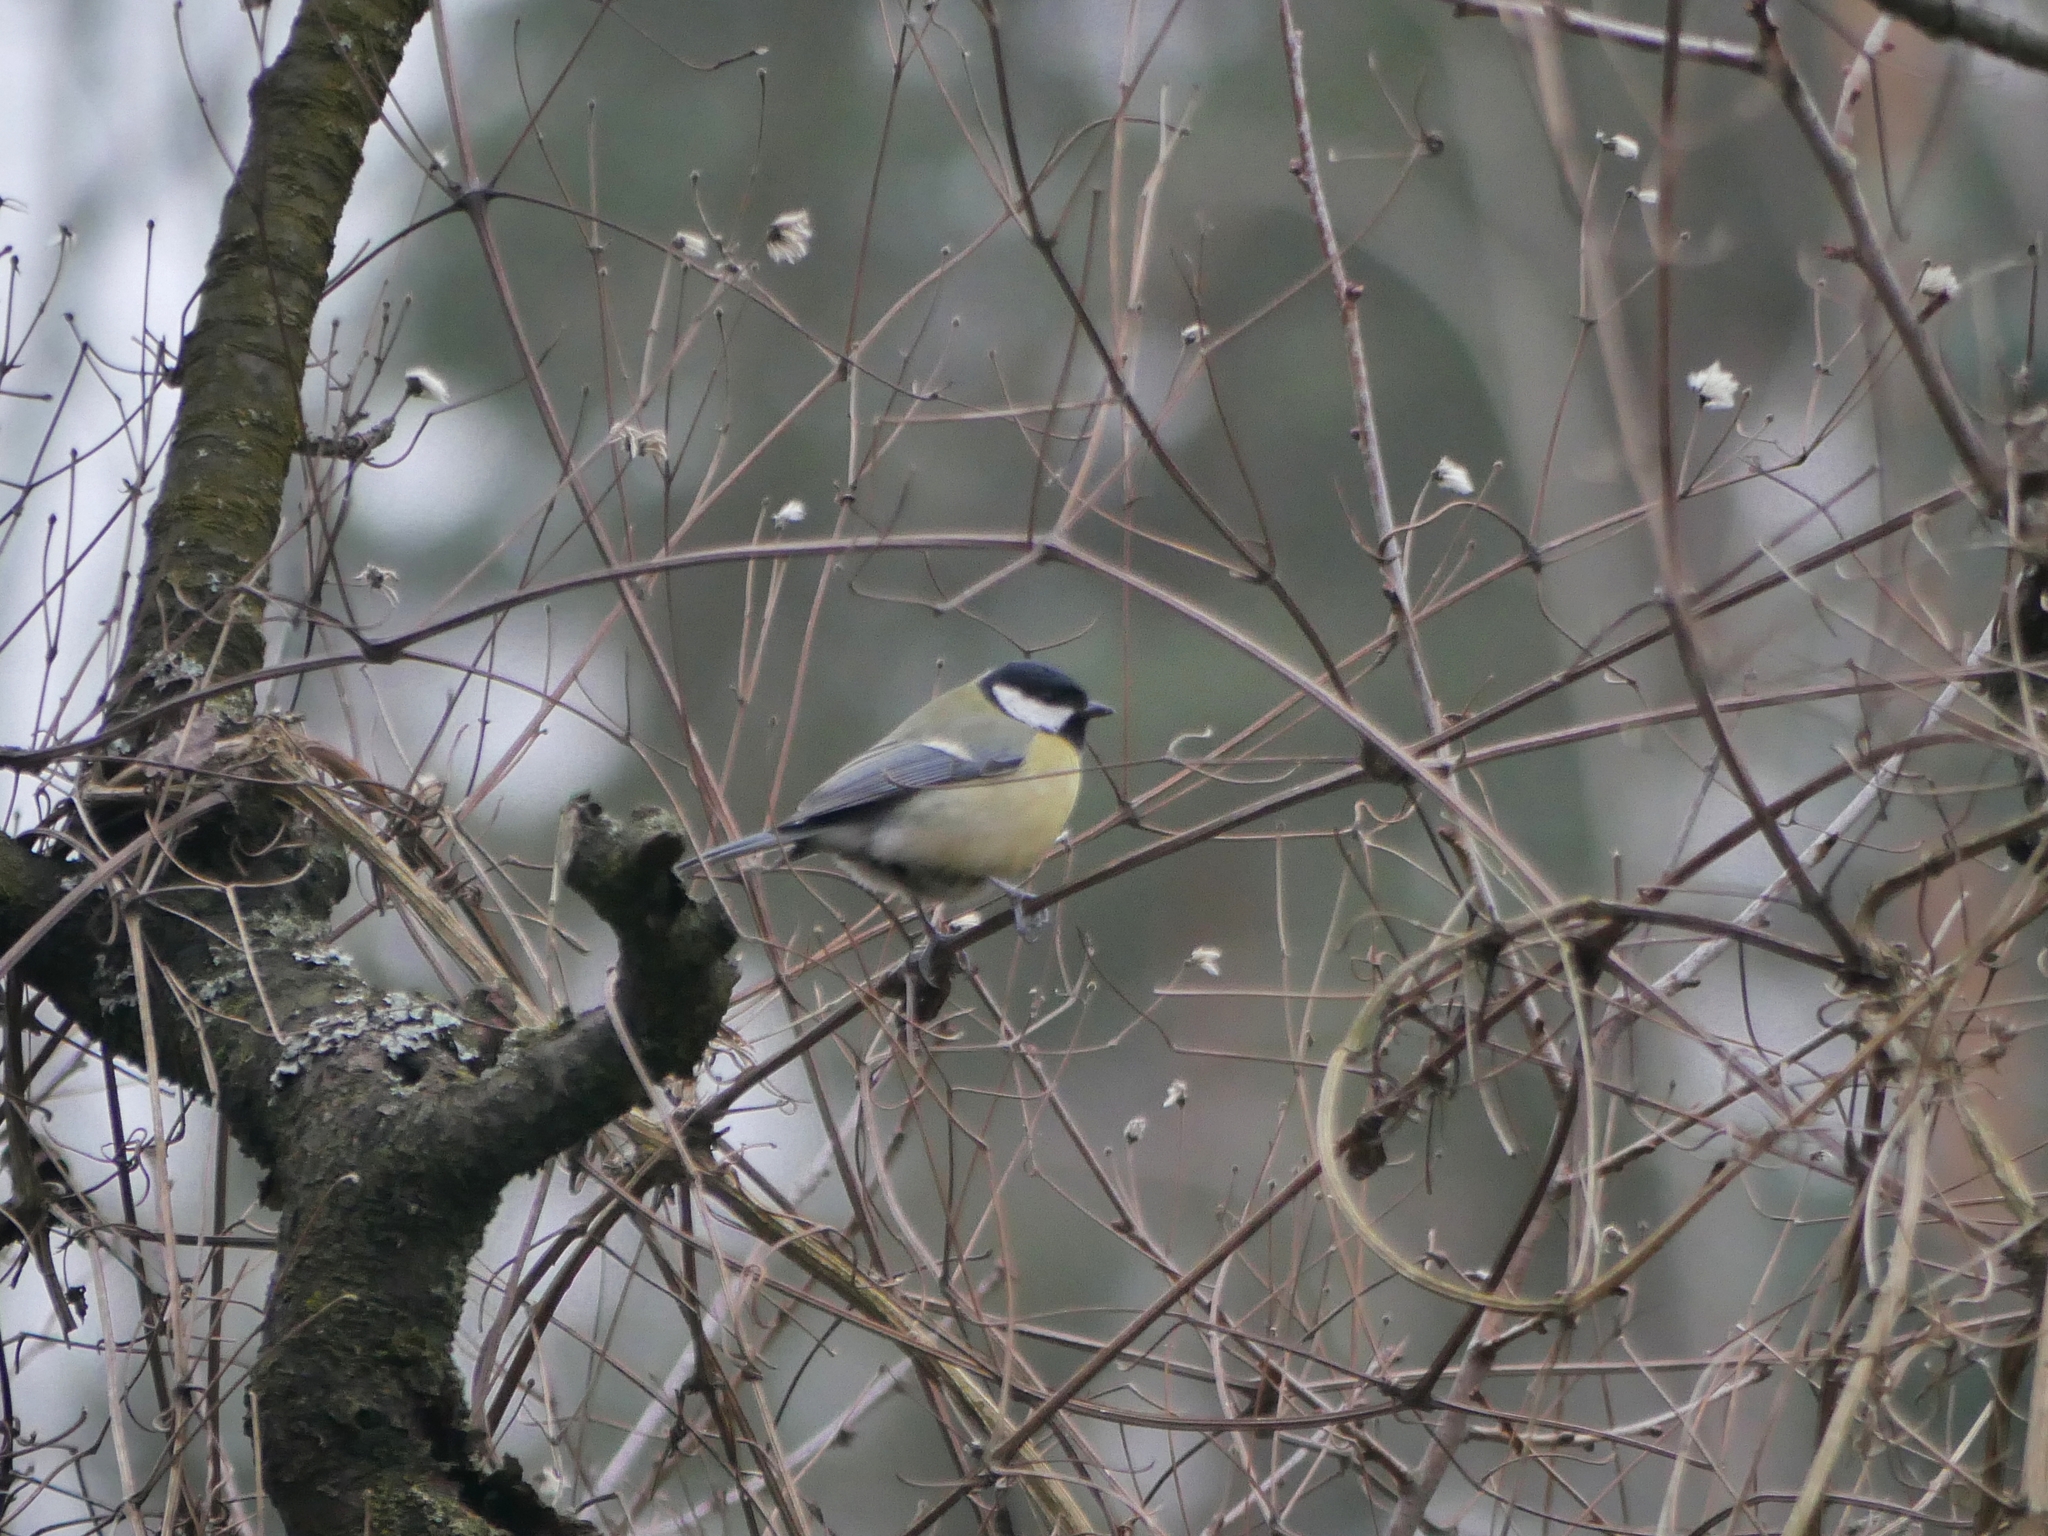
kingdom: Animalia
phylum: Chordata
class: Aves
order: Passeriformes
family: Paridae
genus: Parus
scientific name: Parus major
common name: Great tit
